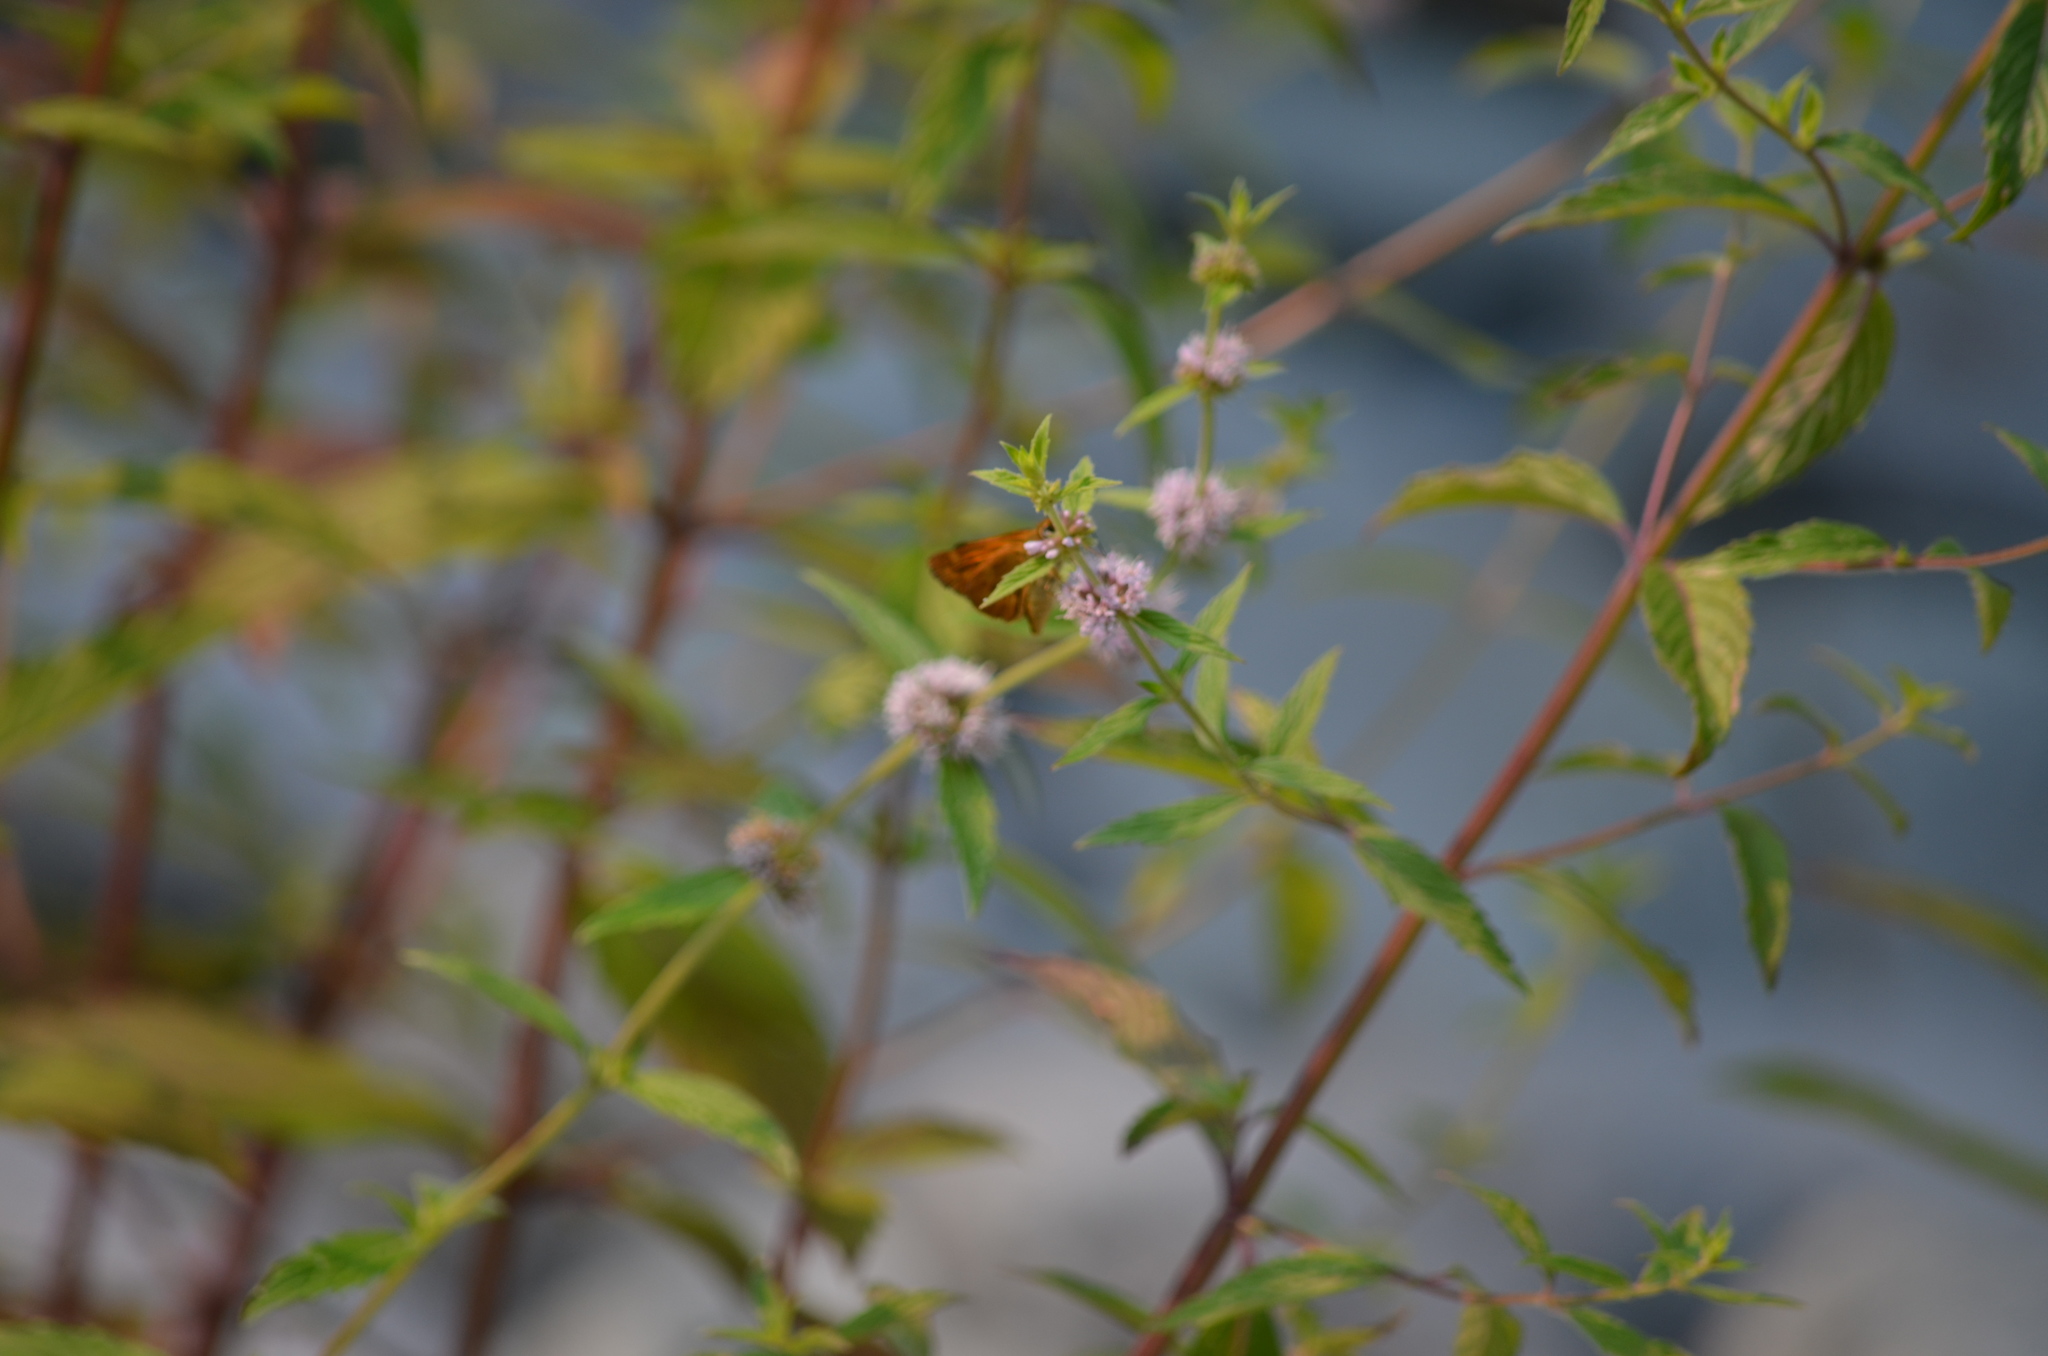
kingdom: Animalia
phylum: Arthropoda
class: Insecta
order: Lepidoptera
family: Hesperiidae
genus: Ochlodes
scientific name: Ochlodes sylvanoides
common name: Woodland skipper
